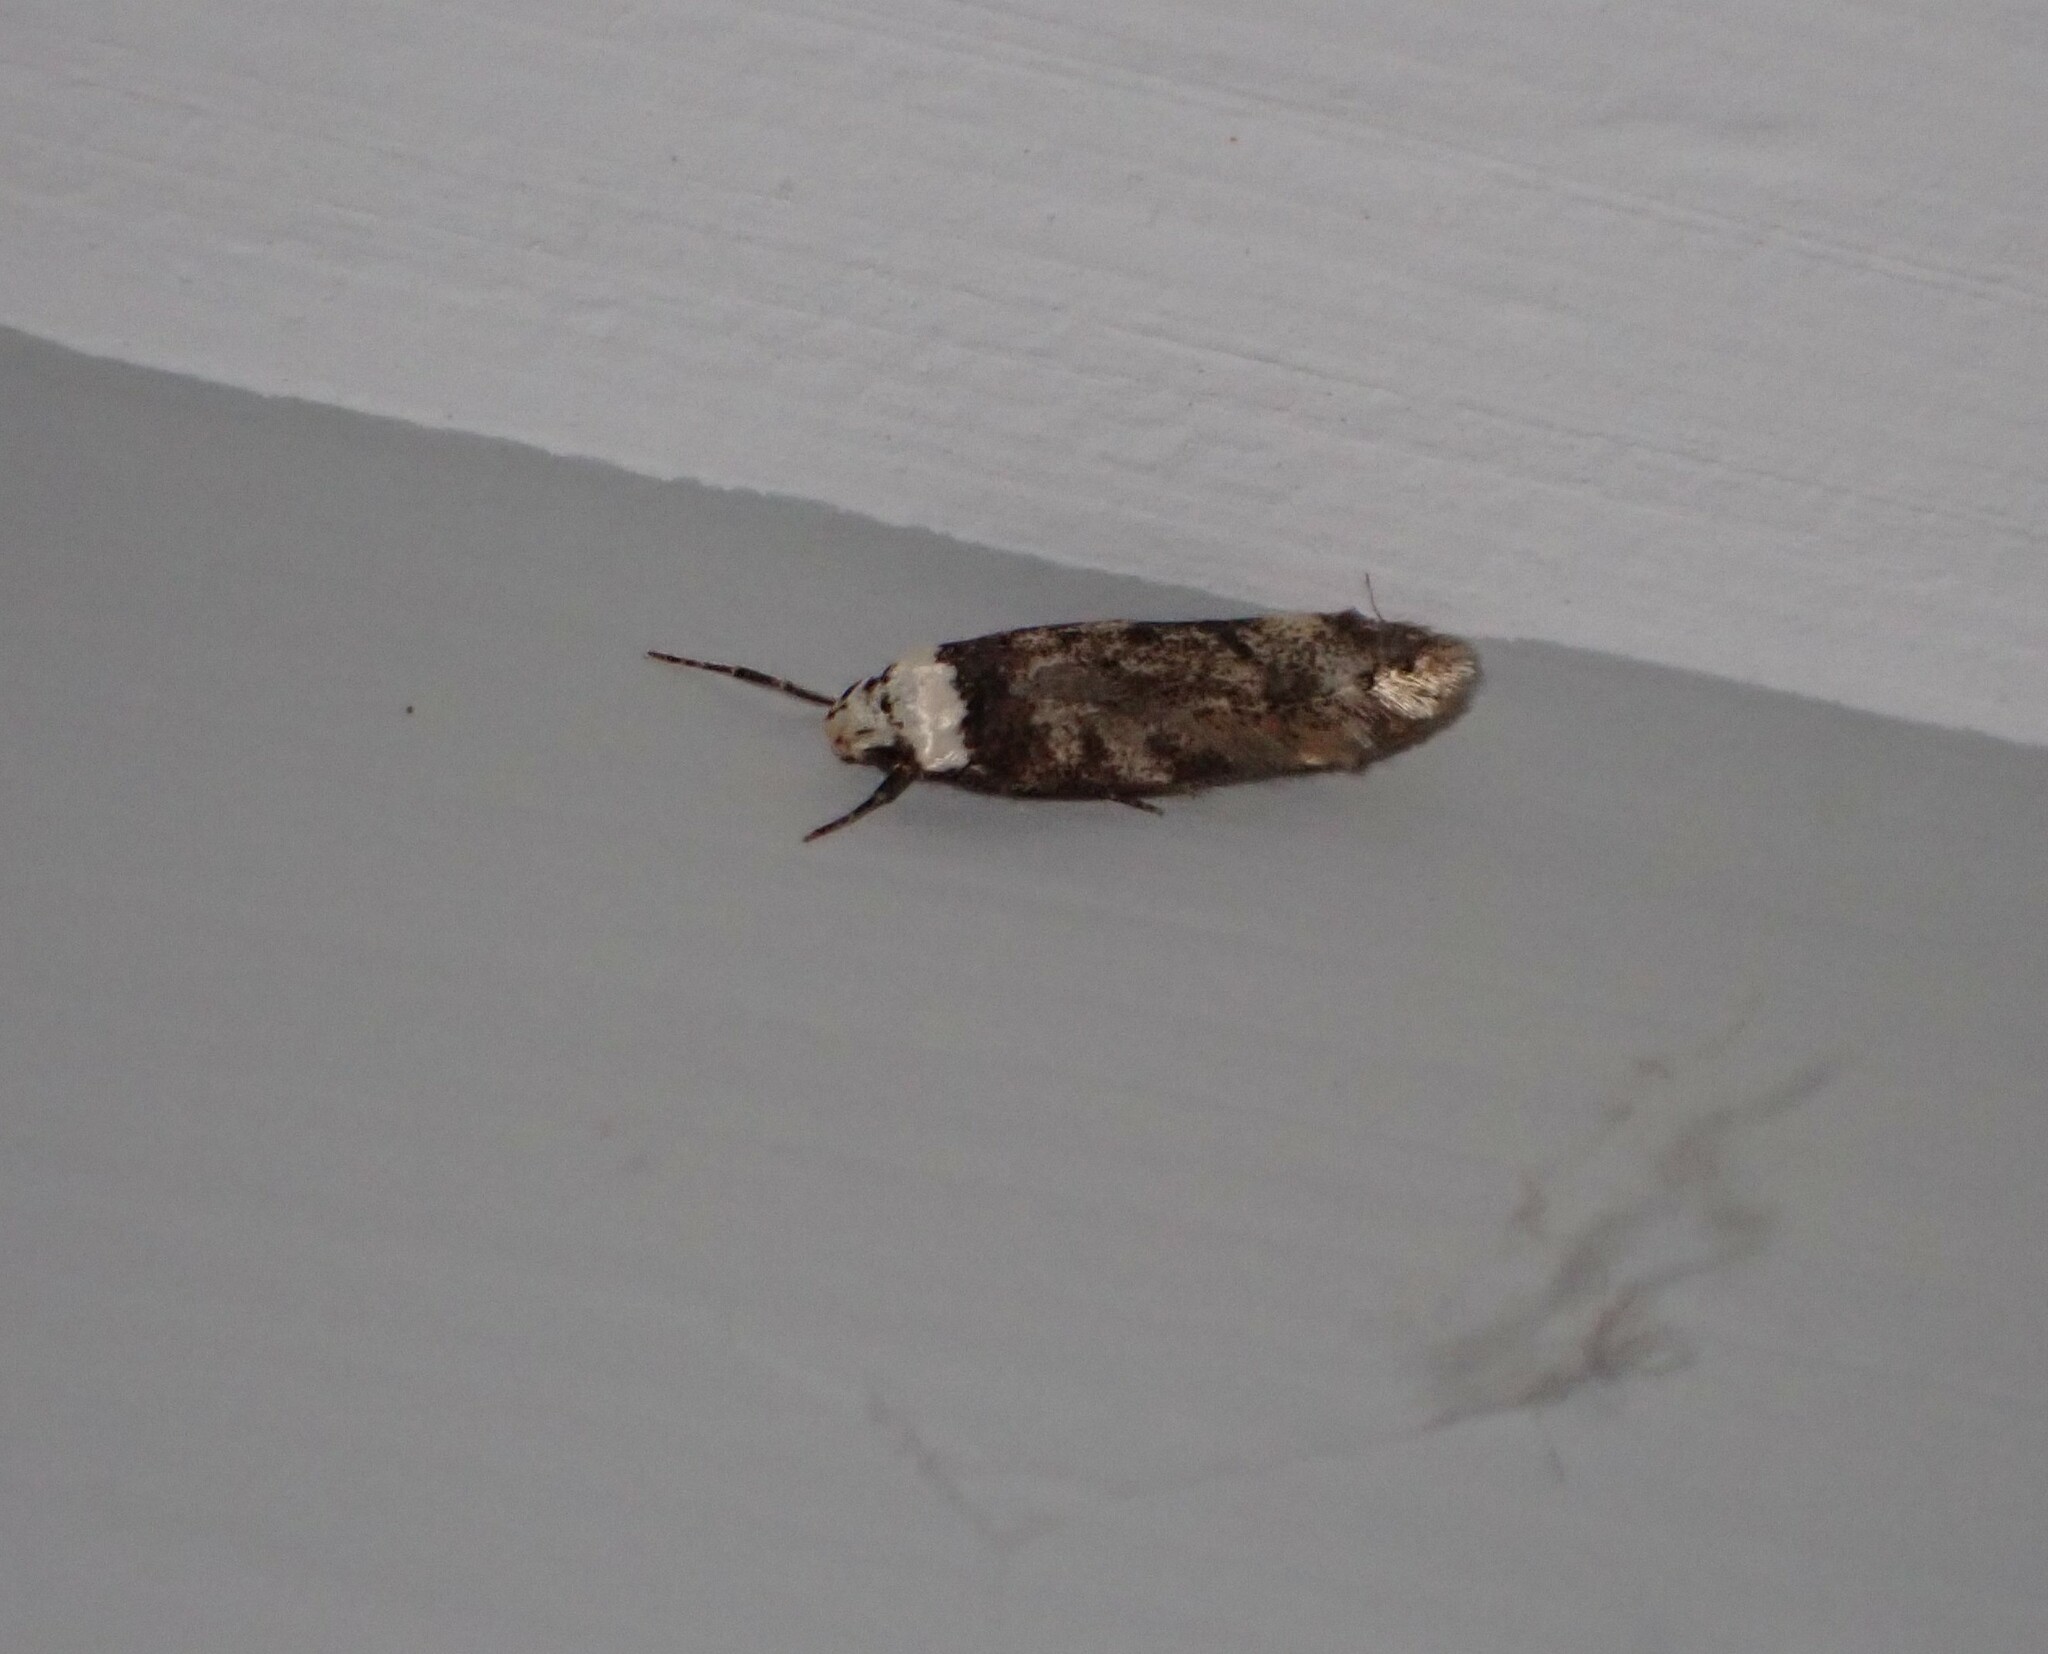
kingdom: Animalia
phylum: Arthropoda
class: Insecta
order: Lepidoptera
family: Oecophoridae
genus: Endrosis
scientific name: Endrosis sarcitrella
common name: White-shouldered house moth
